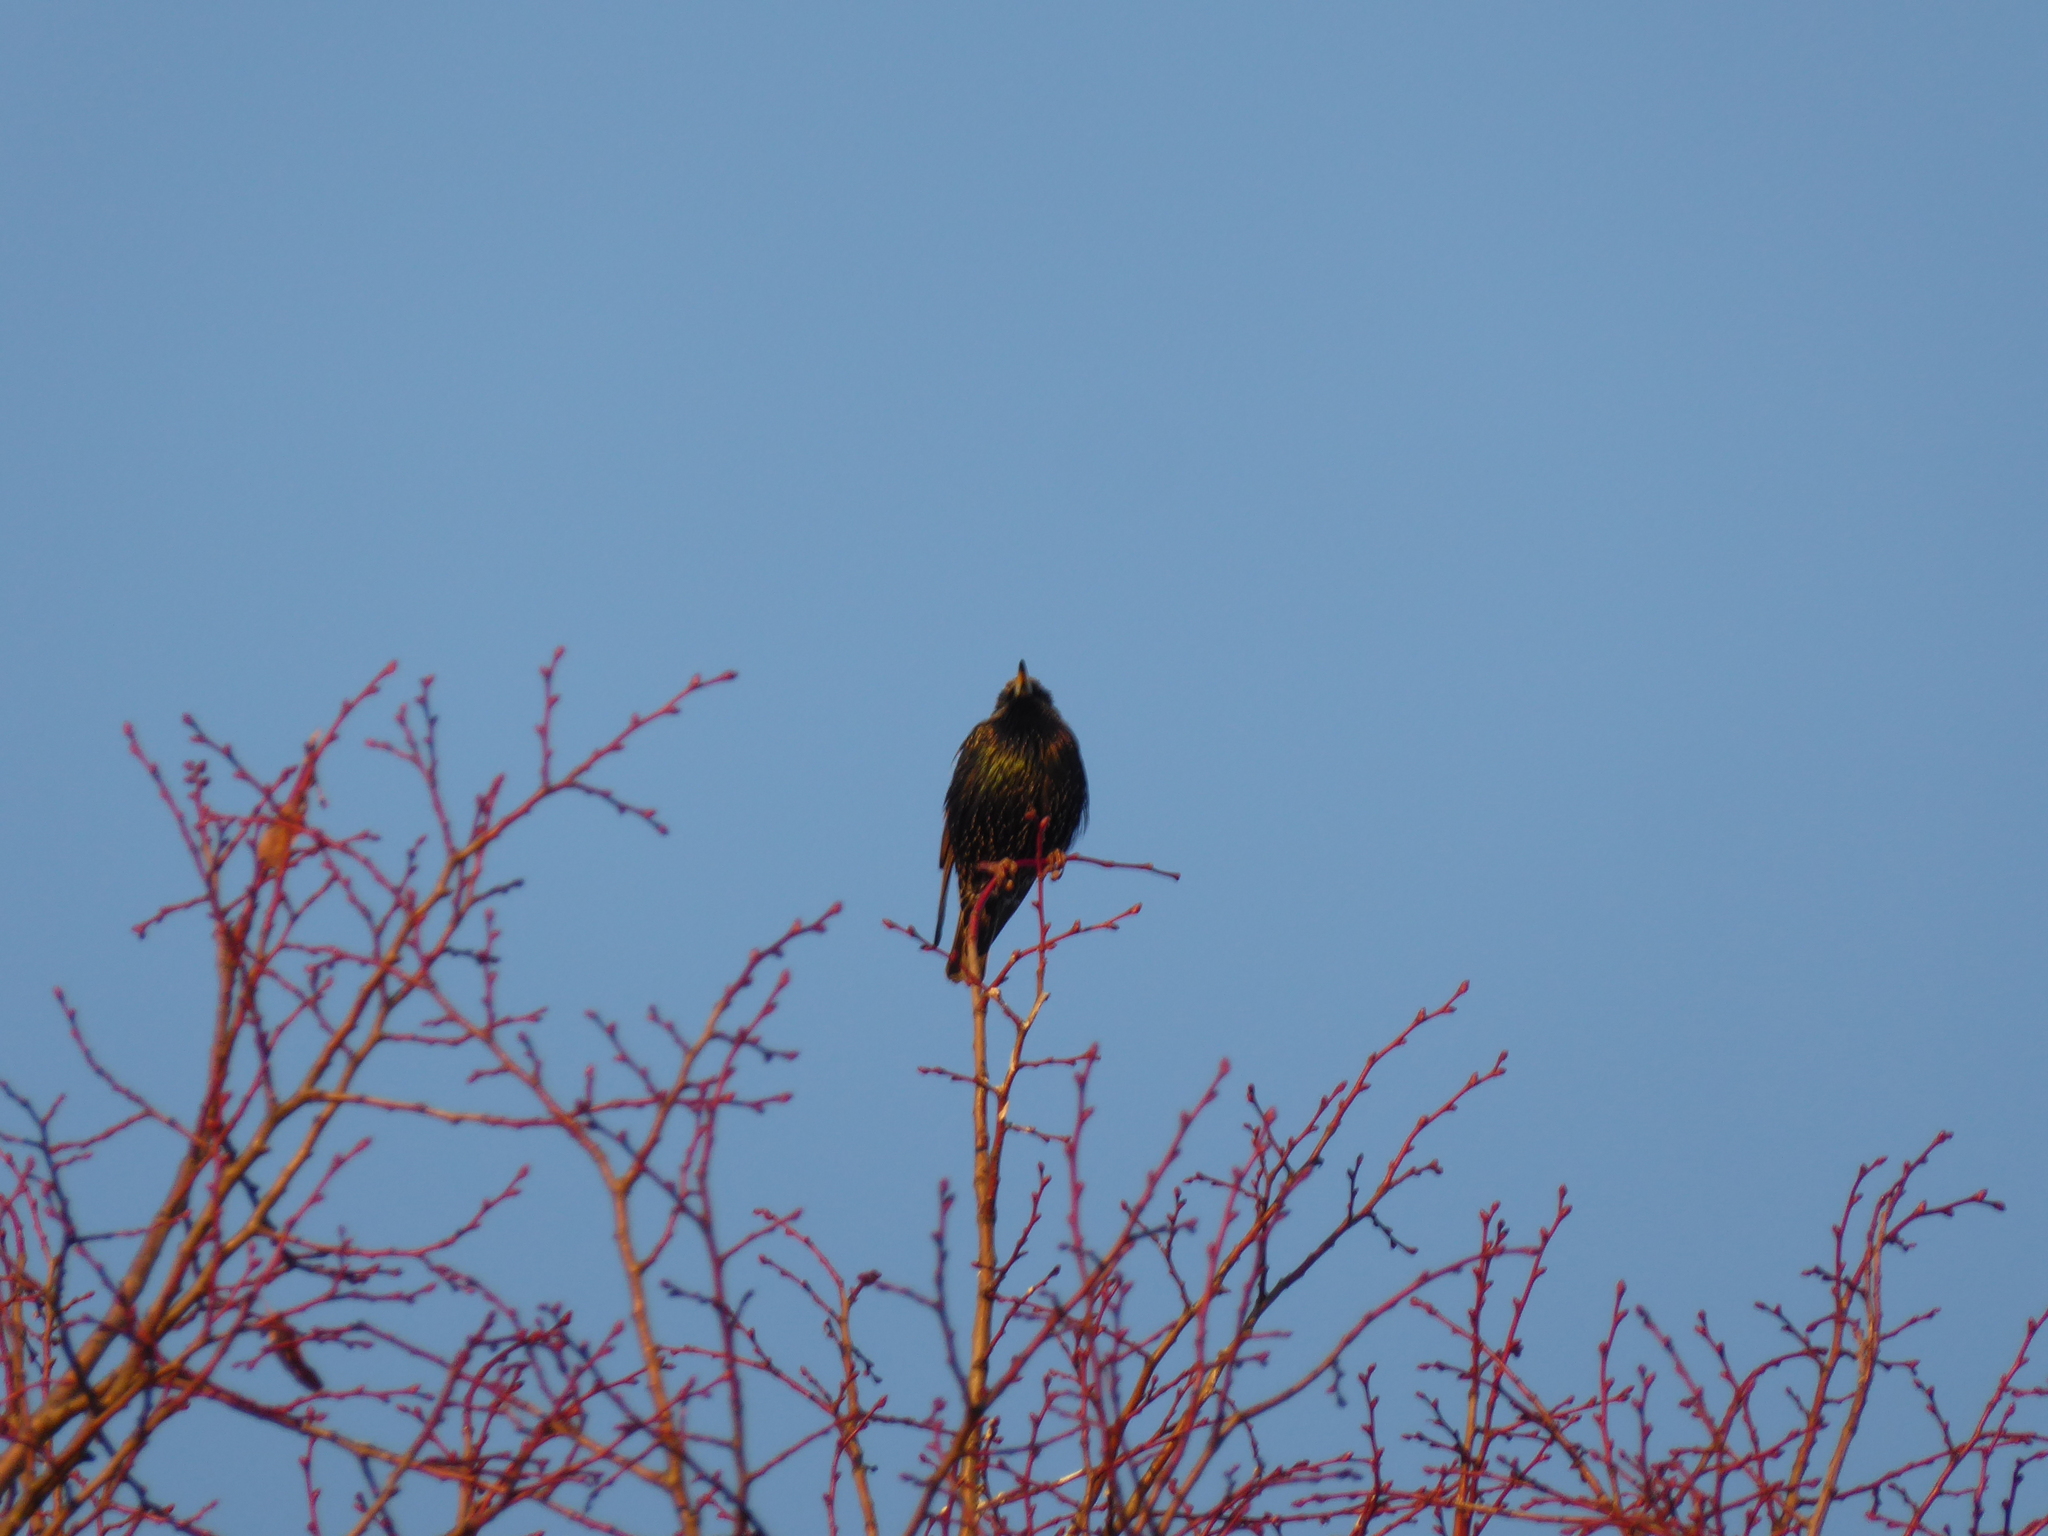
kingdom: Animalia
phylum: Chordata
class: Aves
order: Passeriformes
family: Sturnidae
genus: Sturnus
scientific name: Sturnus vulgaris
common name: Common starling
